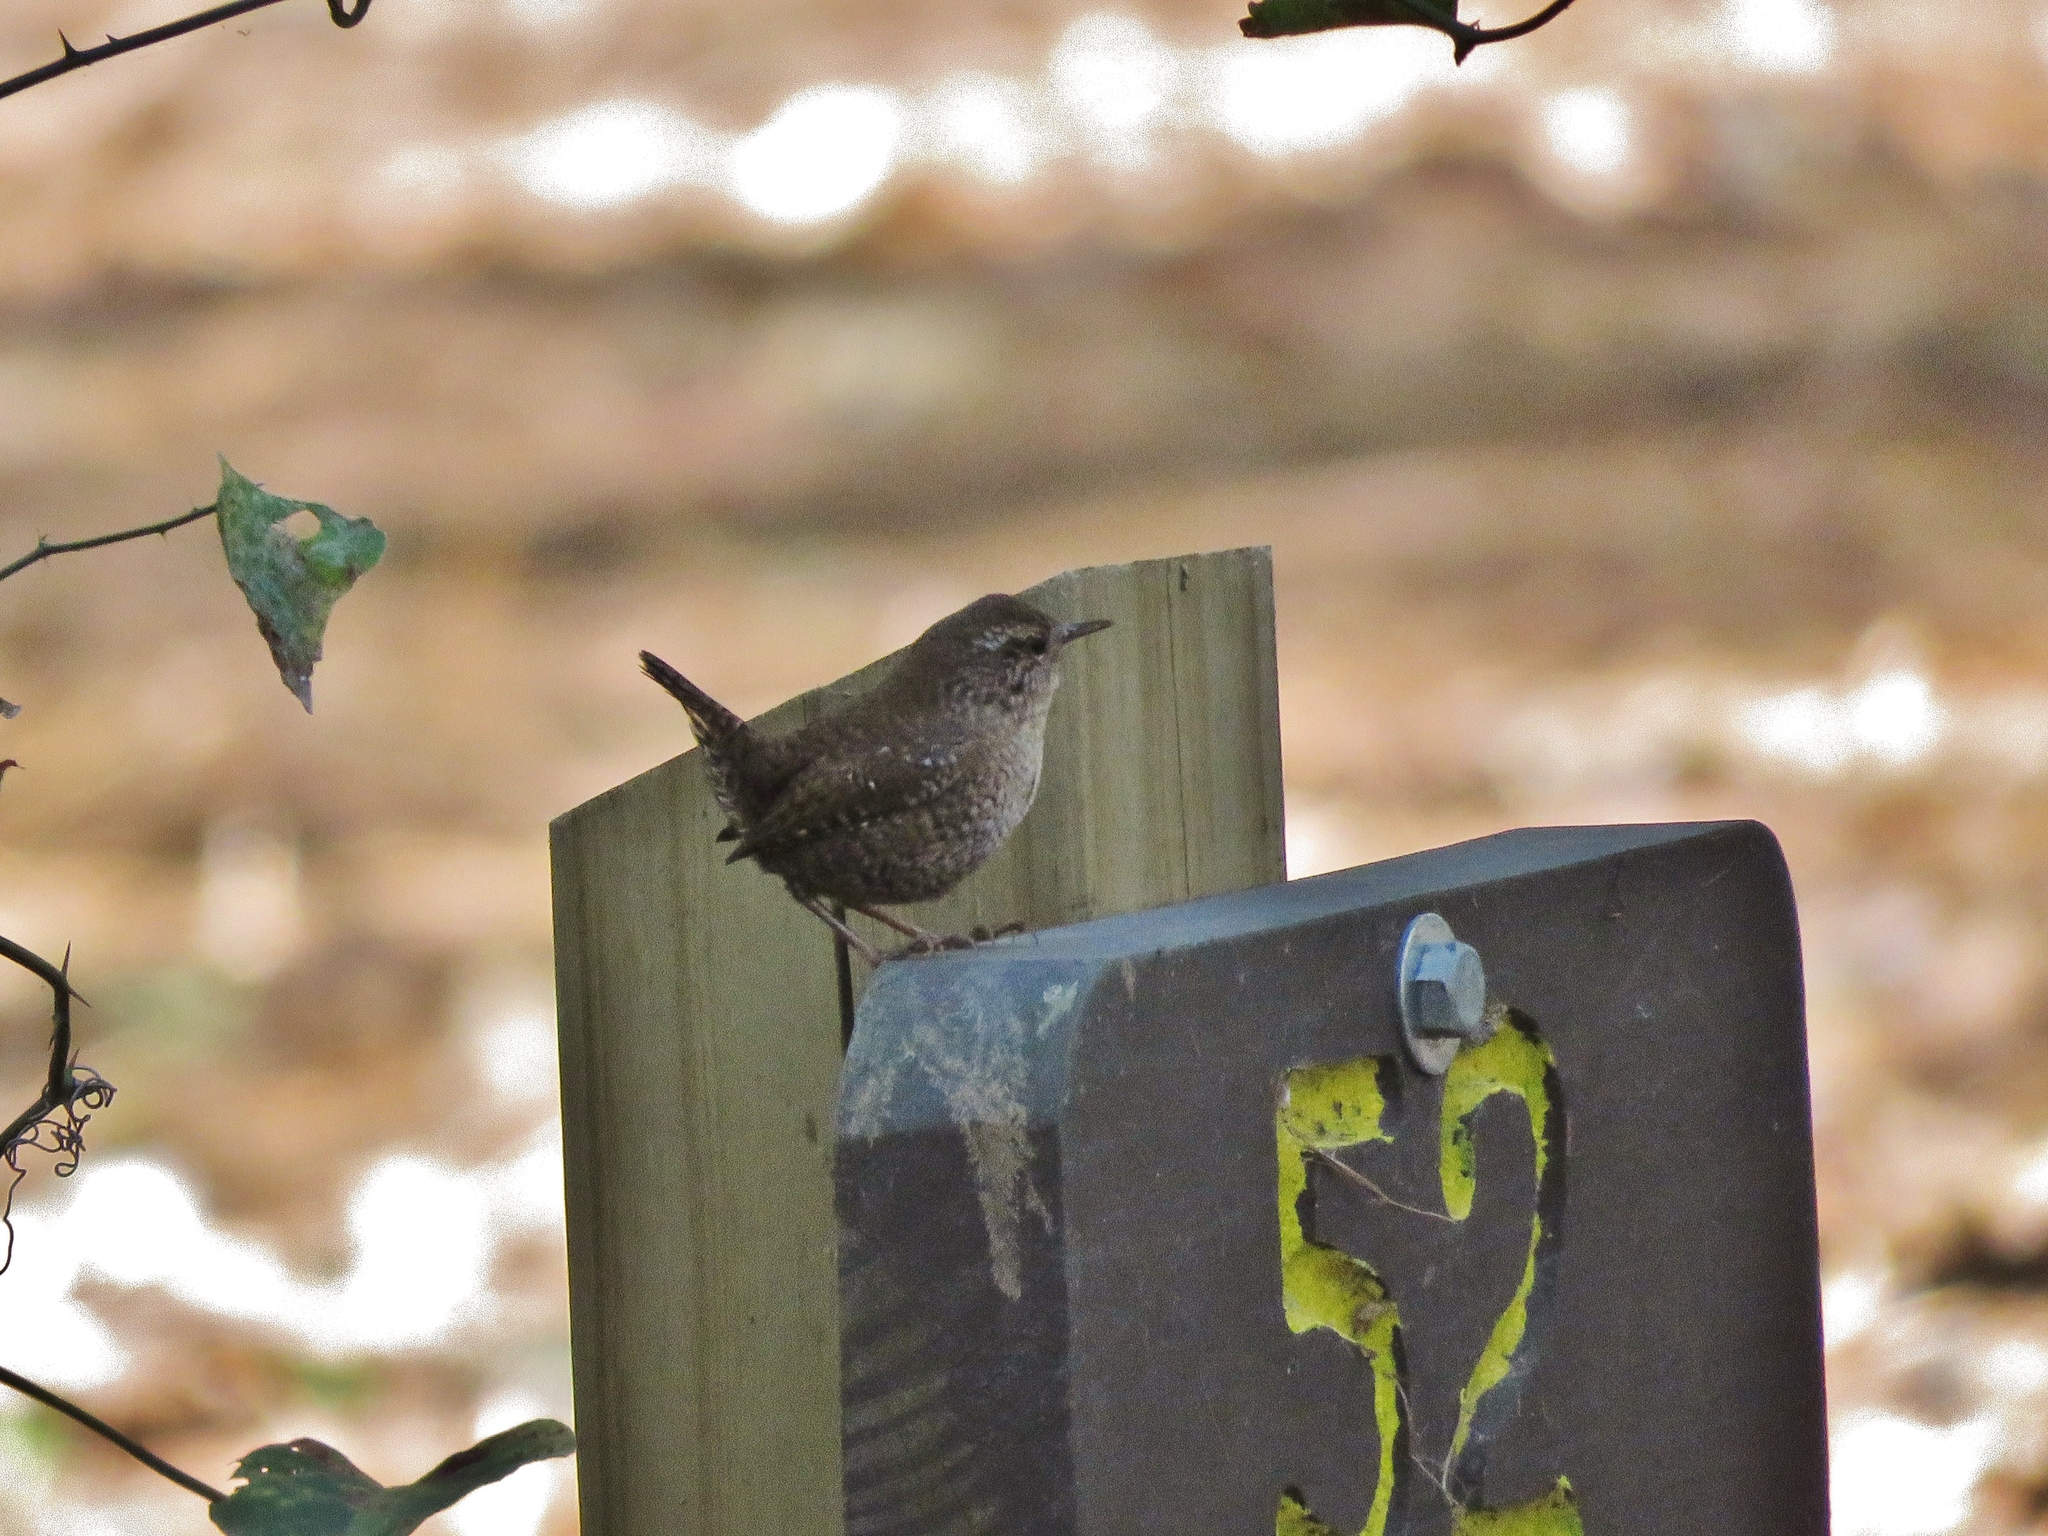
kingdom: Animalia
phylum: Chordata
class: Aves
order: Passeriformes
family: Troglodytidae
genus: Troglodytes
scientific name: Troglodytes hiemalis
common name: Winter wren
